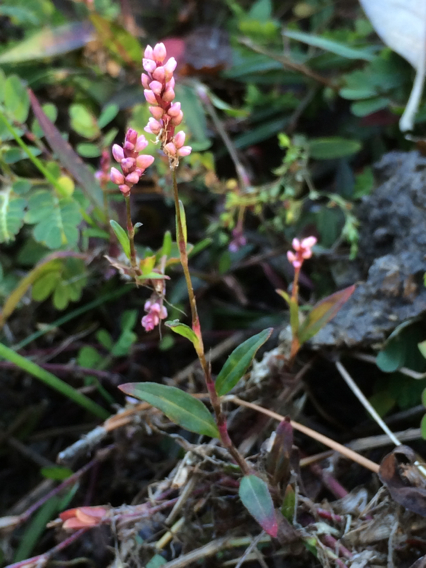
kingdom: Plantae
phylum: Tracheophyta
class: Magnoliopsida
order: Caryophyllales
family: Polygonaceae
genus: Persicaria
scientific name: Persicaria pensylvanica
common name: Pinkweed
